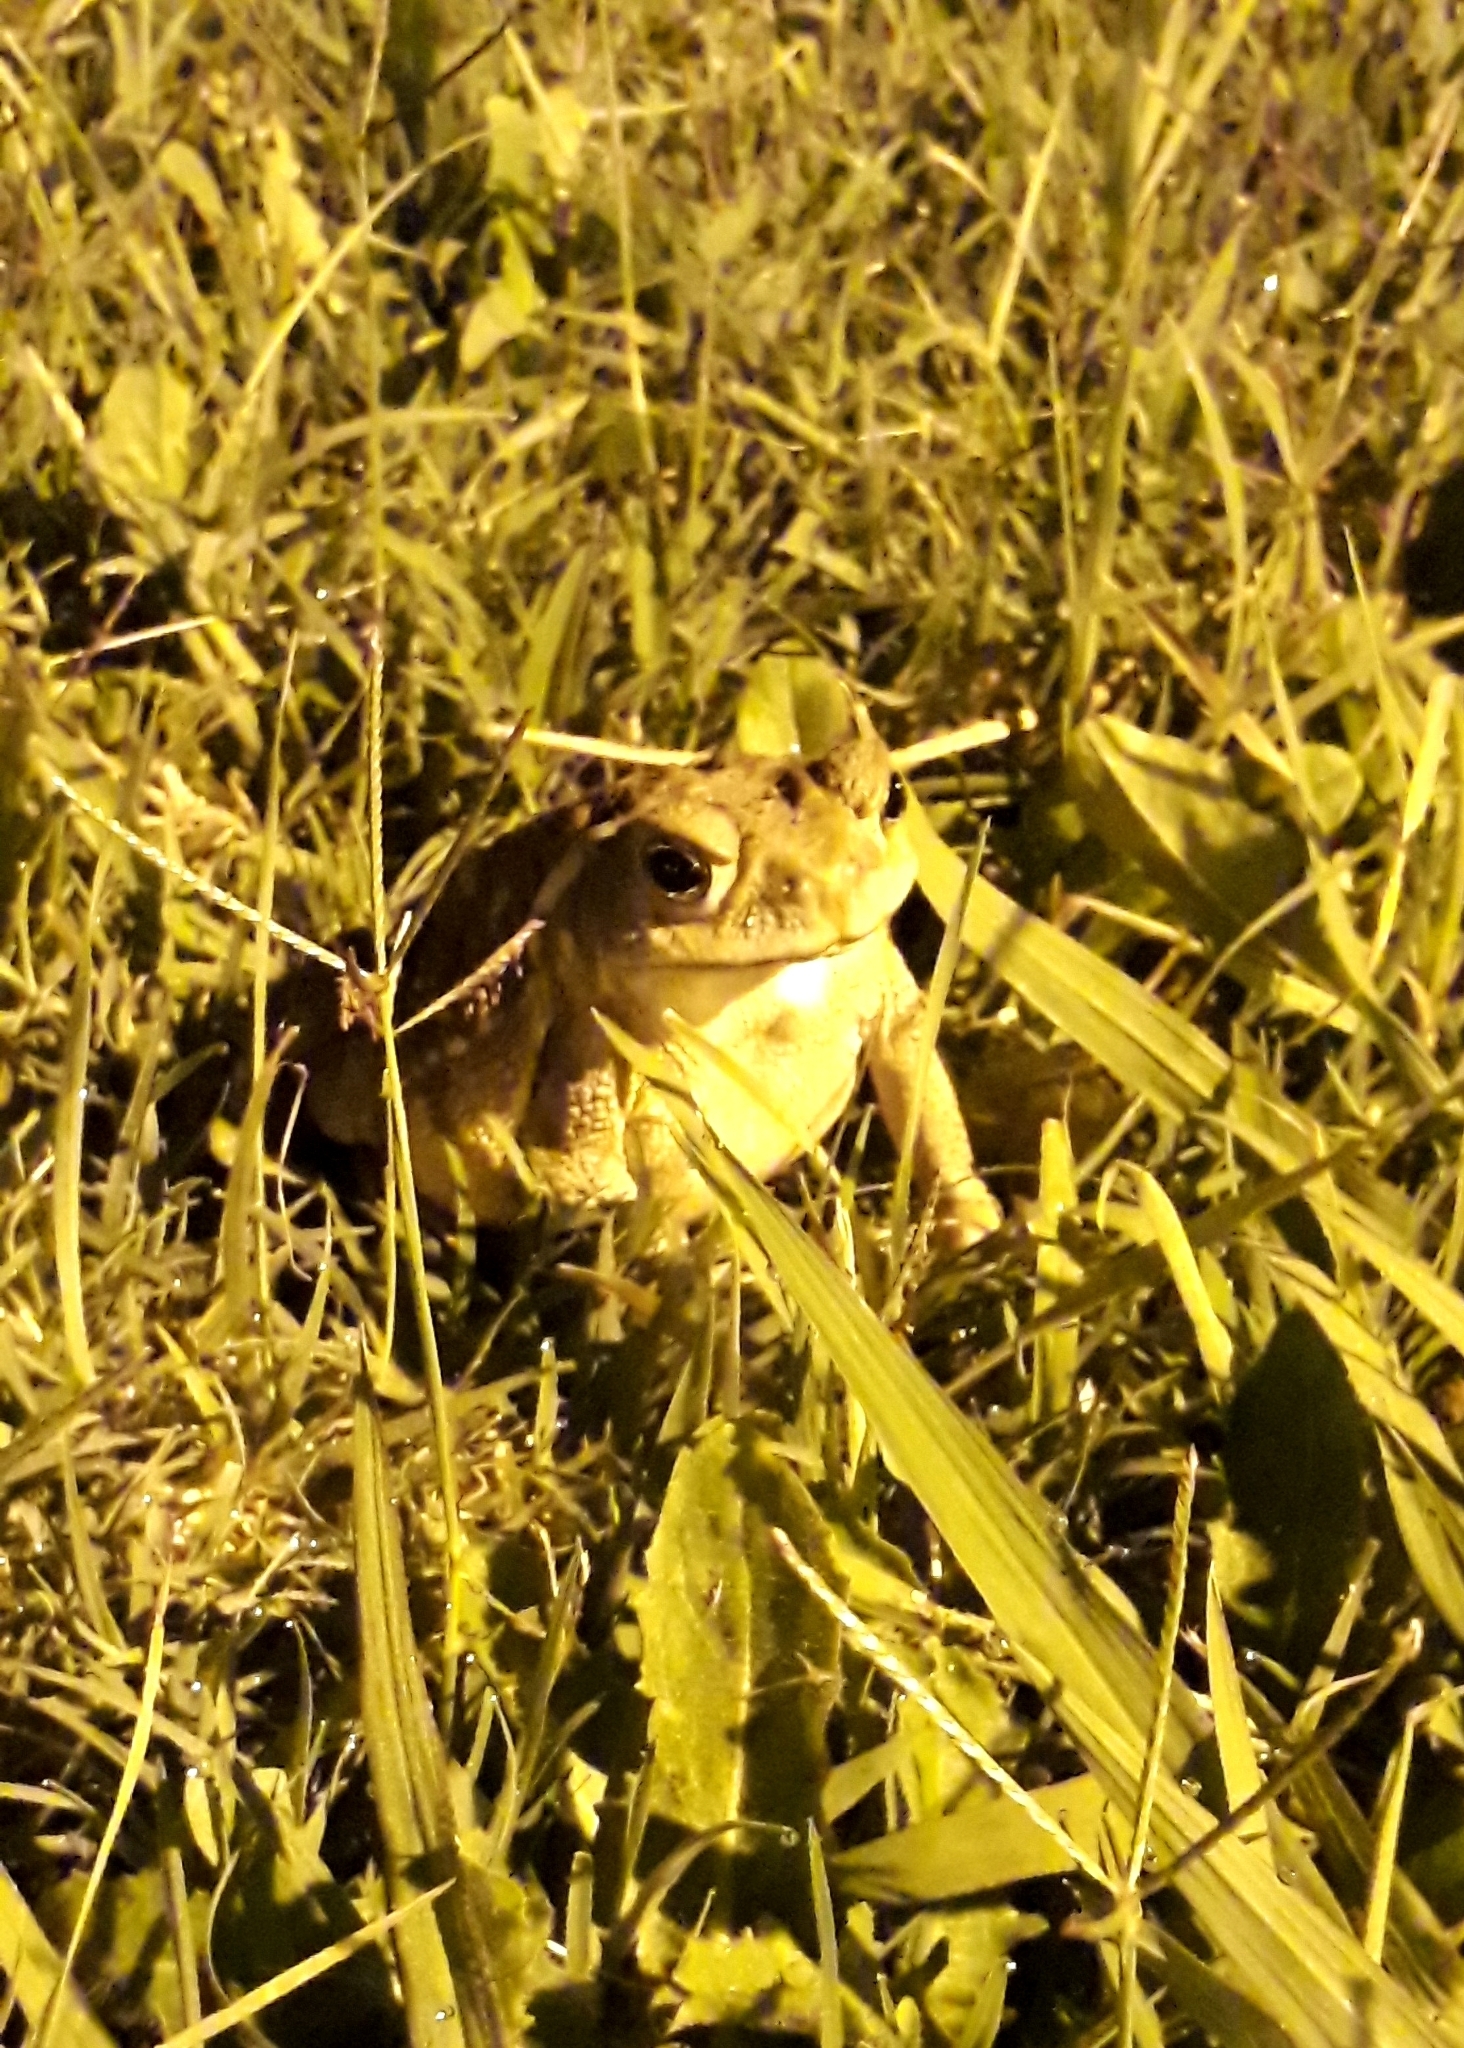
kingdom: Animalia
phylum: Chordata
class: Amphibia
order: Anura
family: Bufonidae
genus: Rhinella
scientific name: Rhinella arenarum
